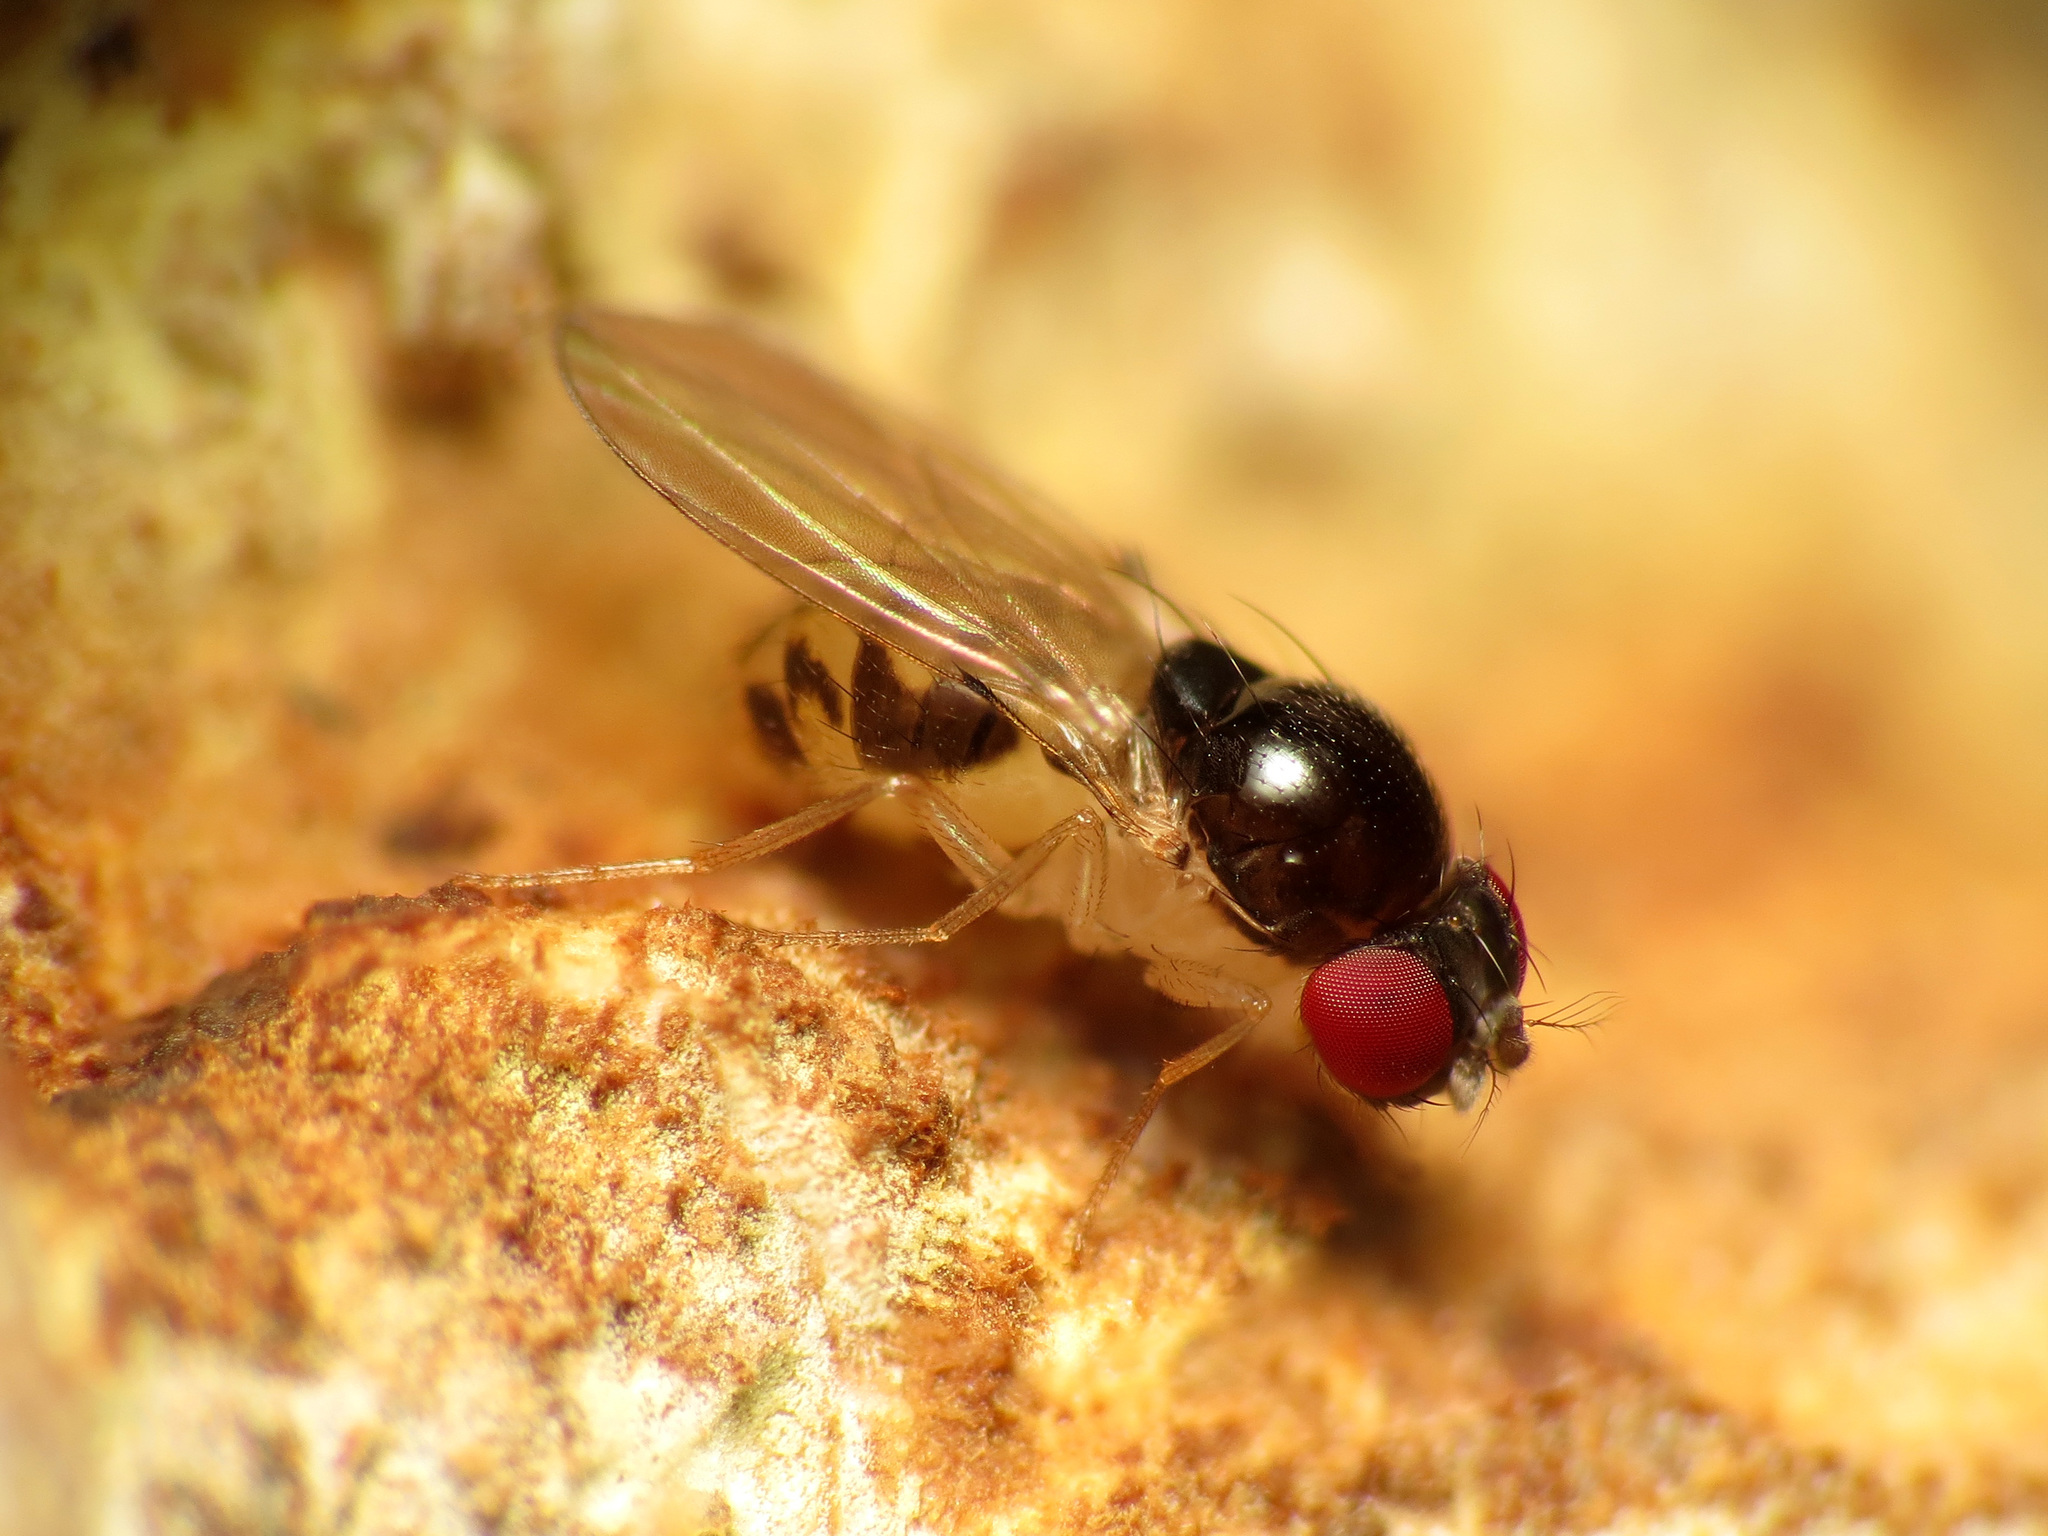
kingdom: Animalia
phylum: Arthropoda
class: Insecta
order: Diptera
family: Drosophilidae
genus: Mycodrosophila
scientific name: Mycodrosophila dimidiata
